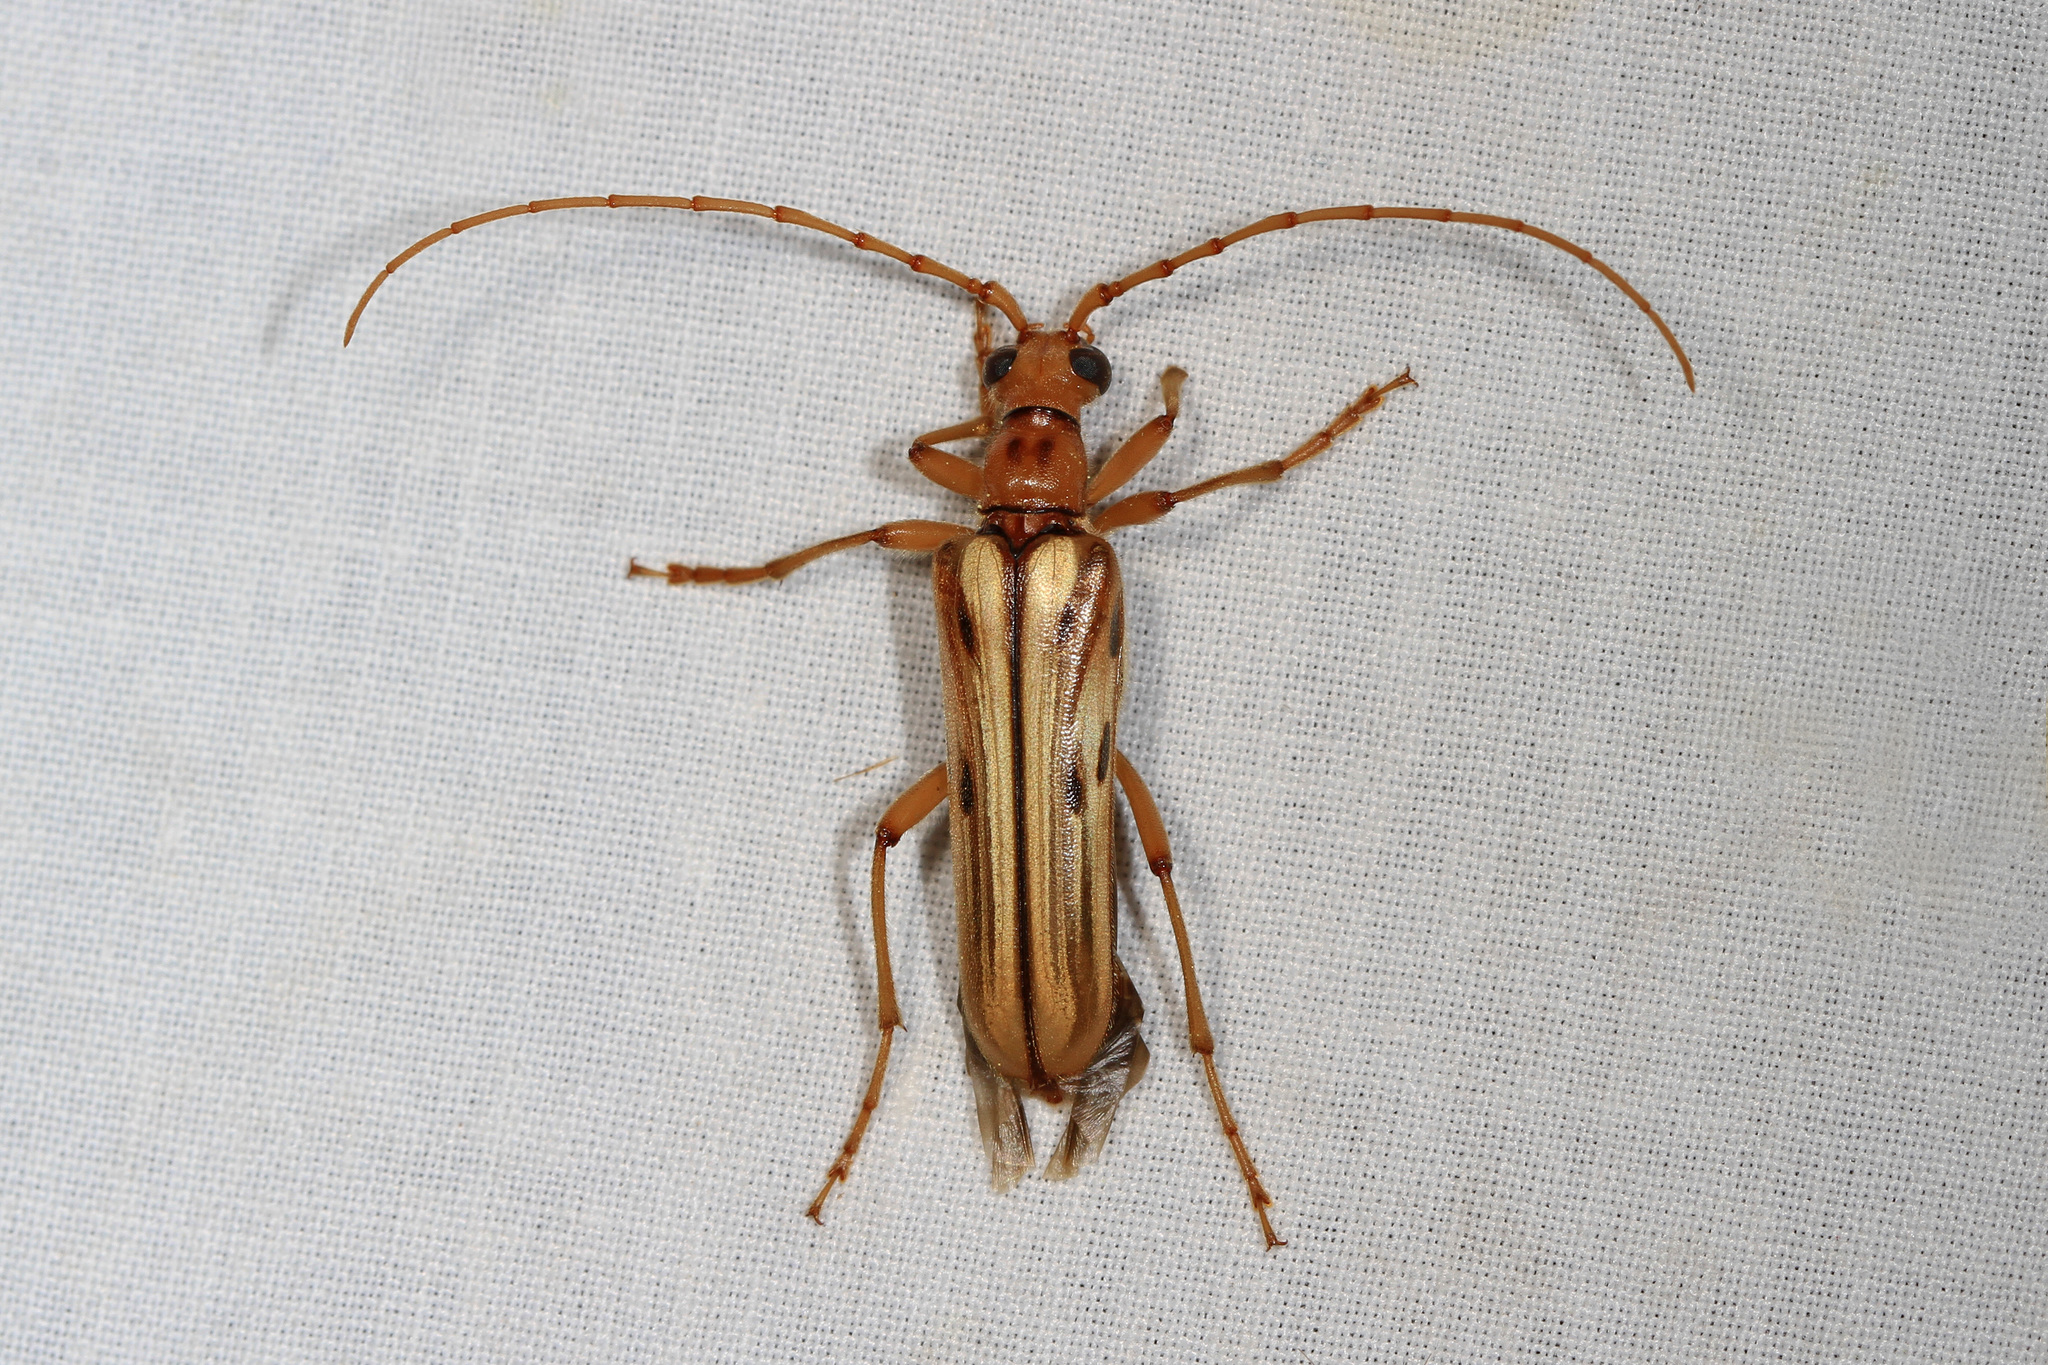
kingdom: Animalia
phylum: Arthropoda
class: Insecta
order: Coleoptera
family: Cerambycidae
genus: Ortholeptura
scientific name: Ortholeptura valida
